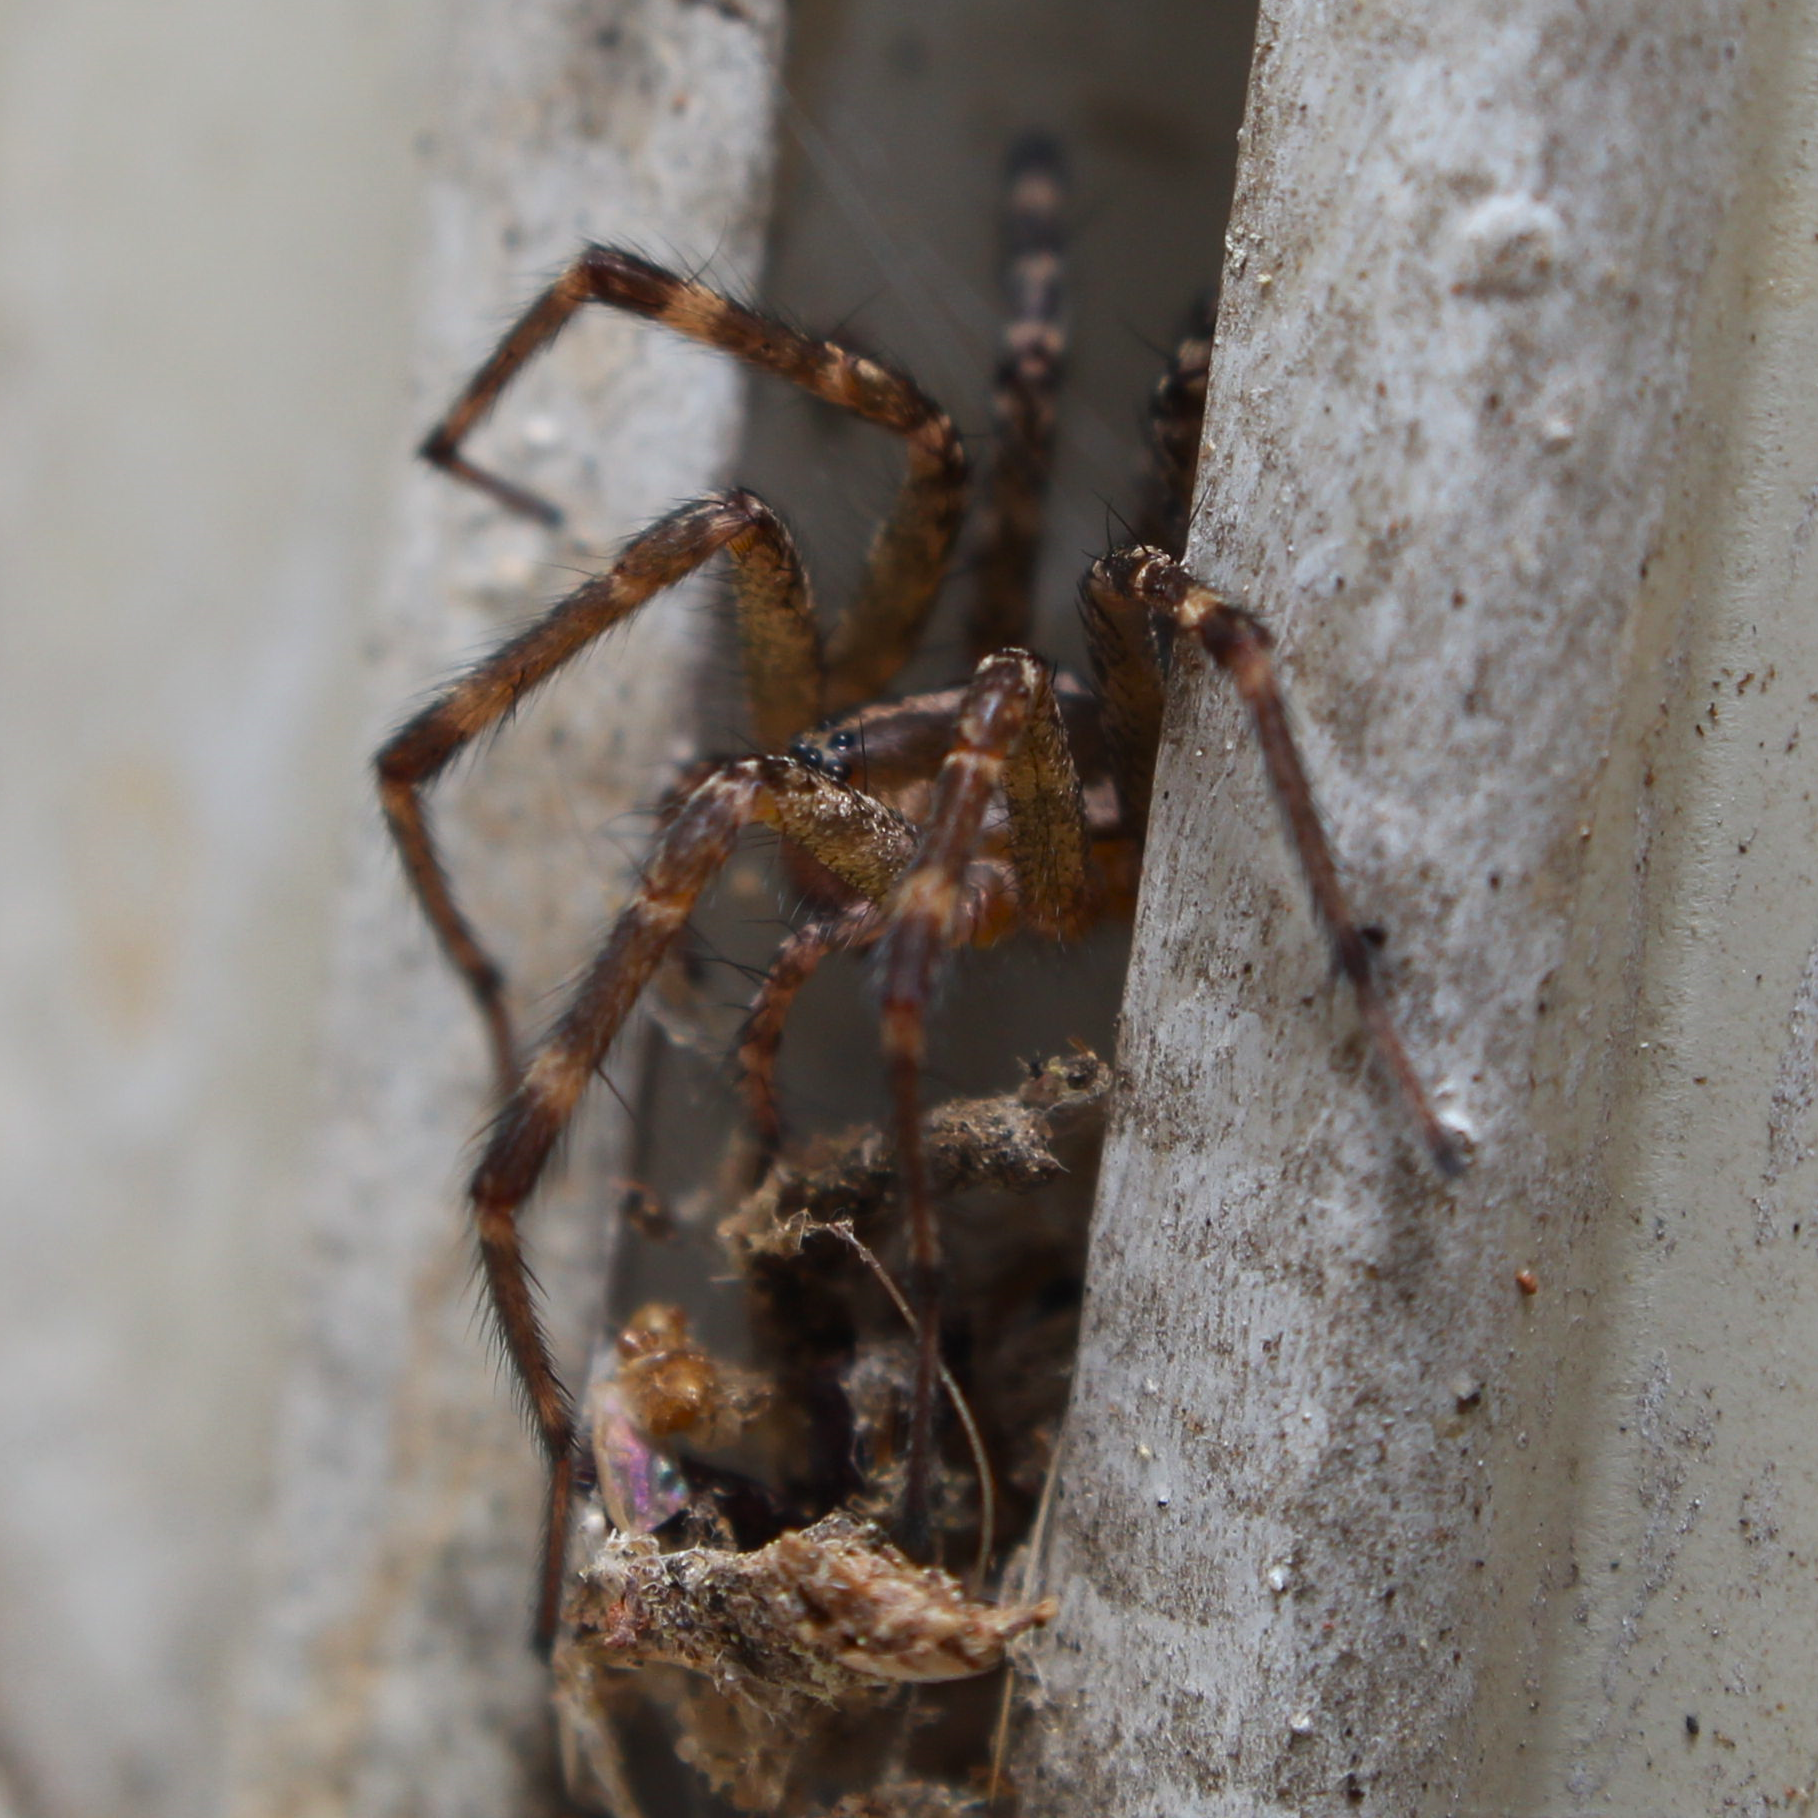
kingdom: Animalia
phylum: Arthropoda
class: Arachnida
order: Araneae
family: Agelenidae
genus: Agelenopsis
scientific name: Agelenopsis
